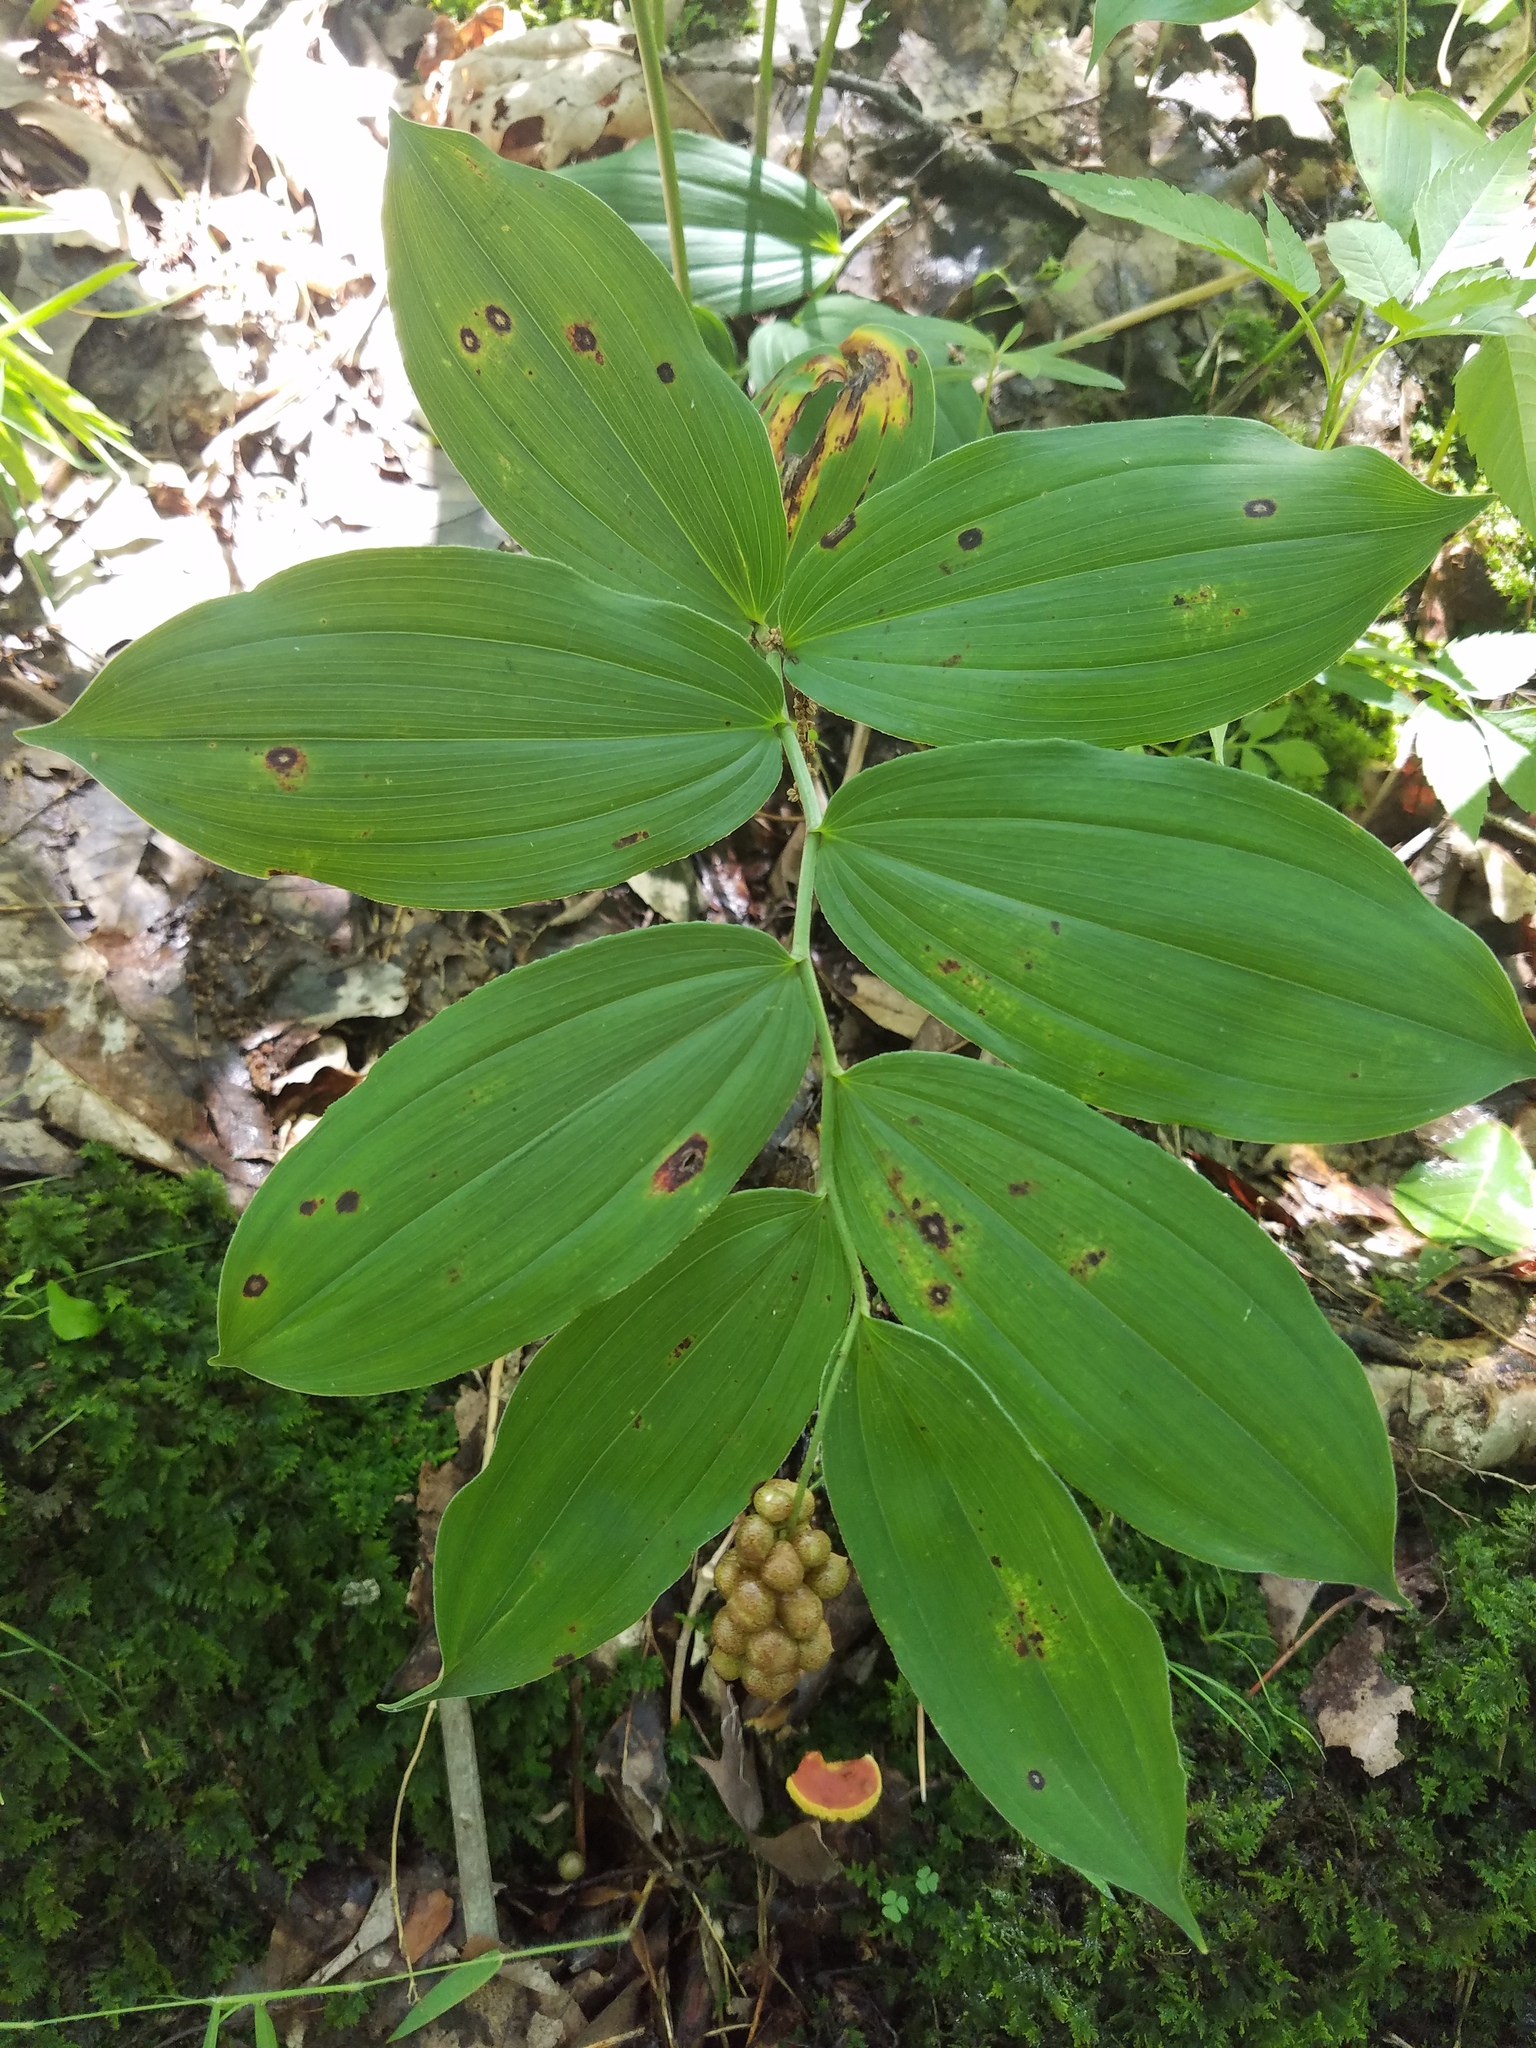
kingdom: Plantae
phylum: Tracheophyta
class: Liliopsida
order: Asparagales
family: Asparagaceae
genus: Maianthemum
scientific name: Maianthemum racemosum
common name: False spikenard
